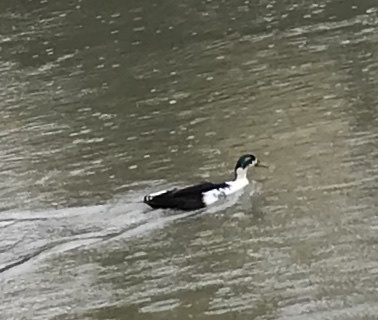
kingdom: Animalia
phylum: Chordata
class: Aves
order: Anseriformes
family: Anatidae
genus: Anas
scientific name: Anas platyrhynchos
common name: Mallard
